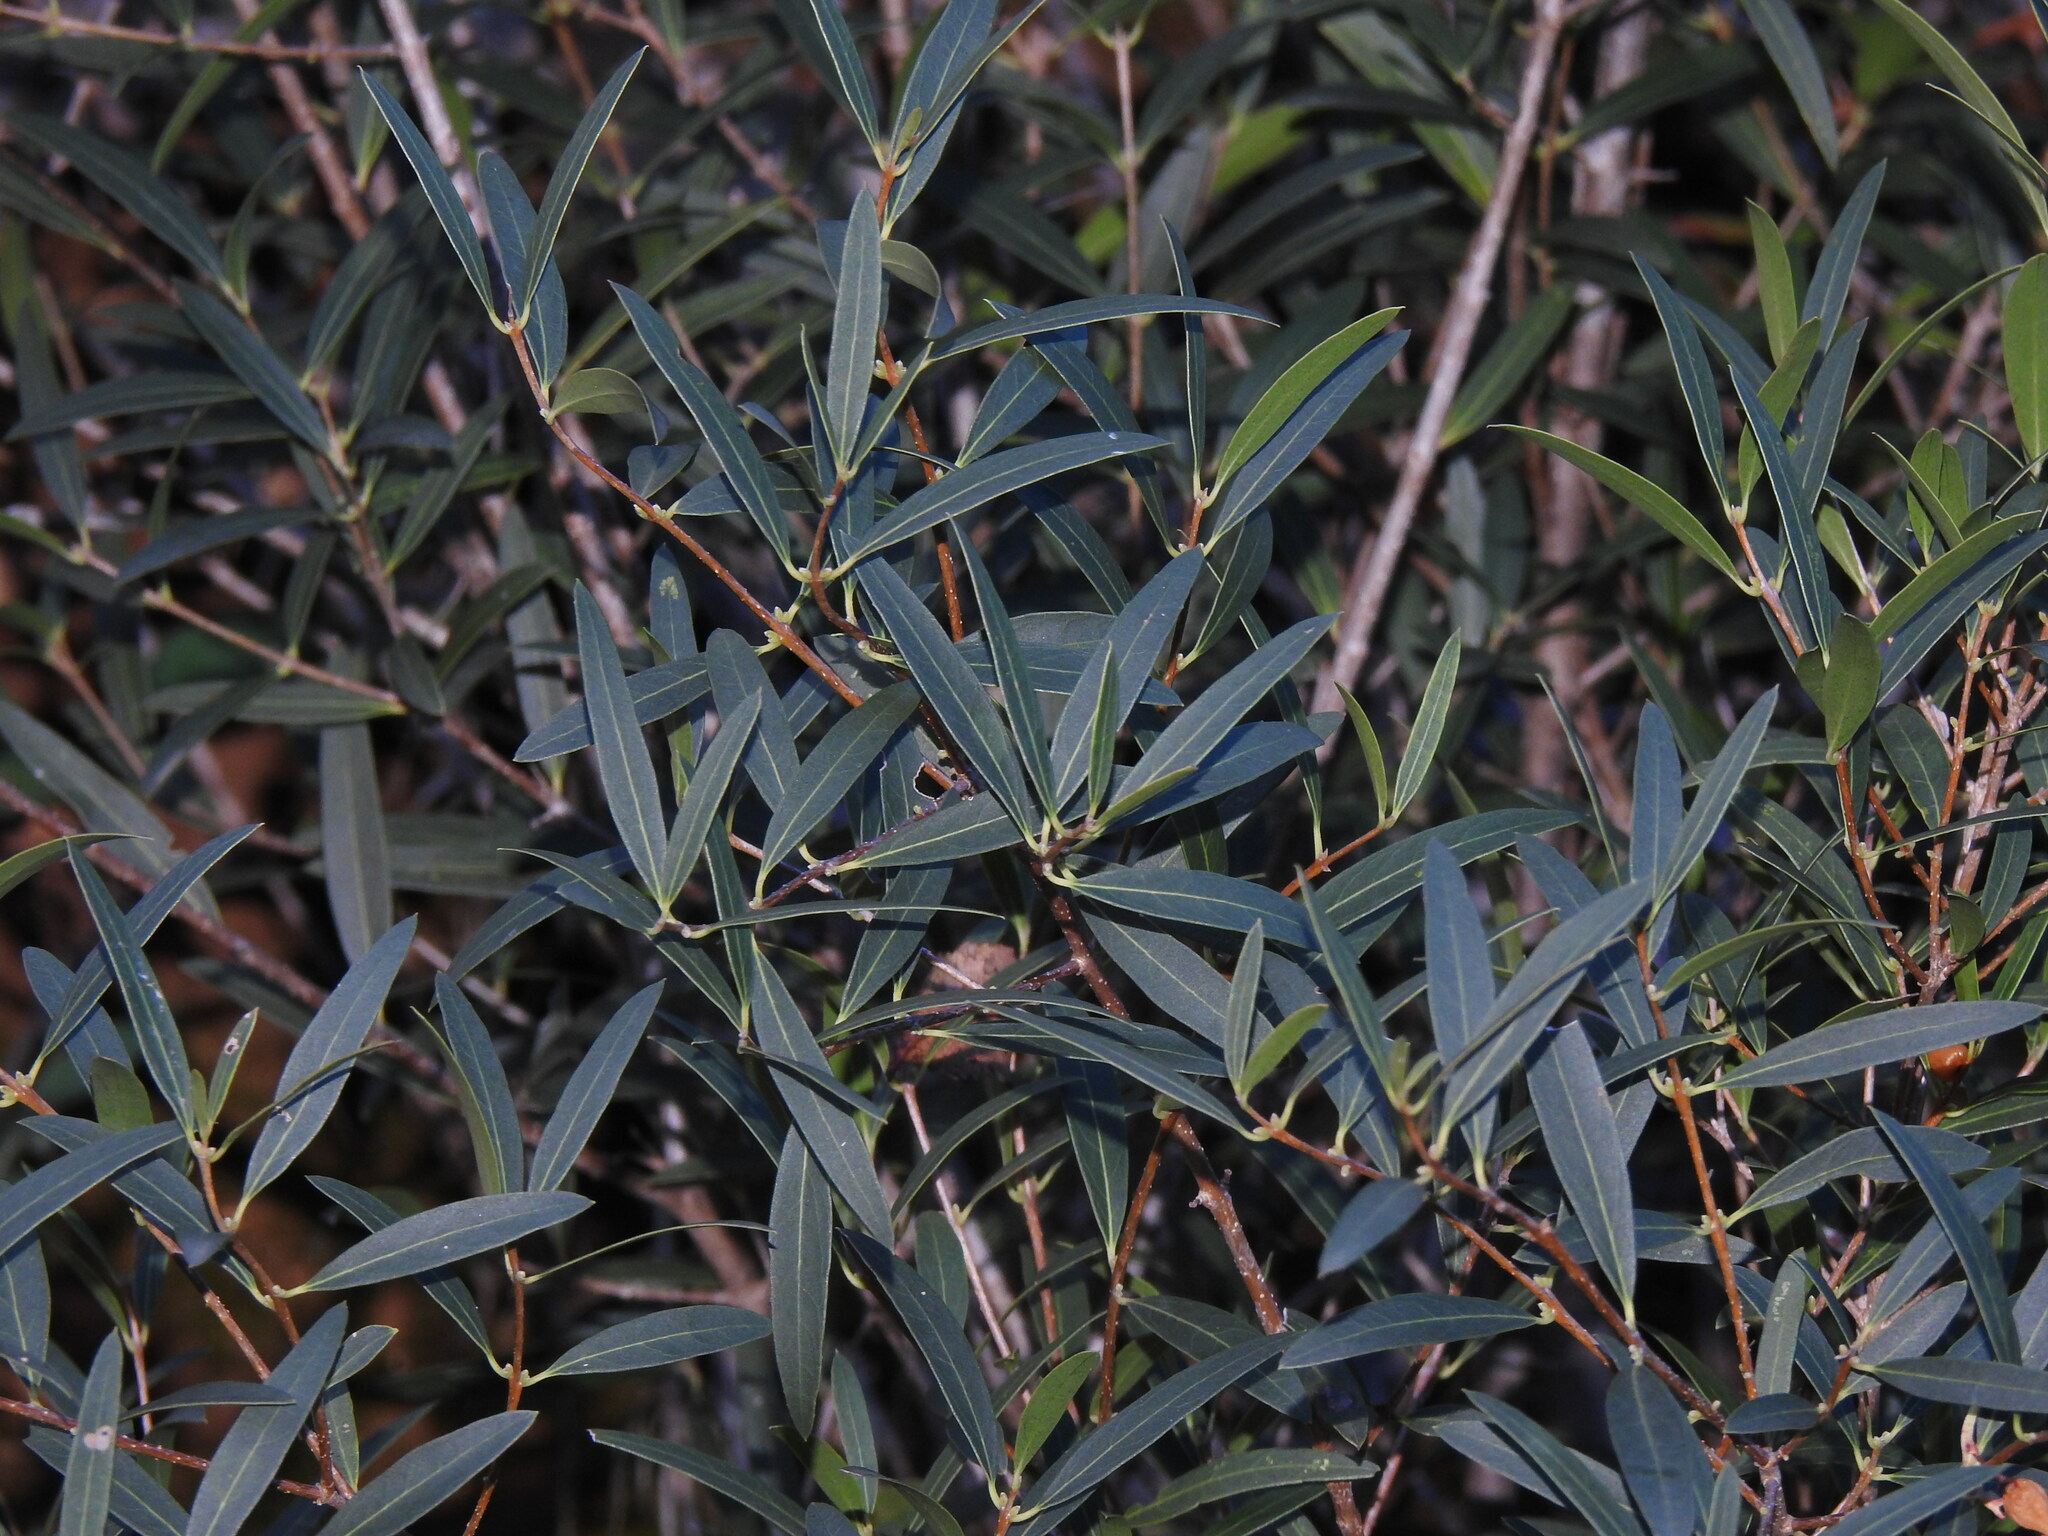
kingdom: Plantae
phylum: Tracheophyta
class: Magnoliopsida
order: Lamiales
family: Oleaceae
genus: Phillyrea
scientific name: Phillyrea angustifolia
